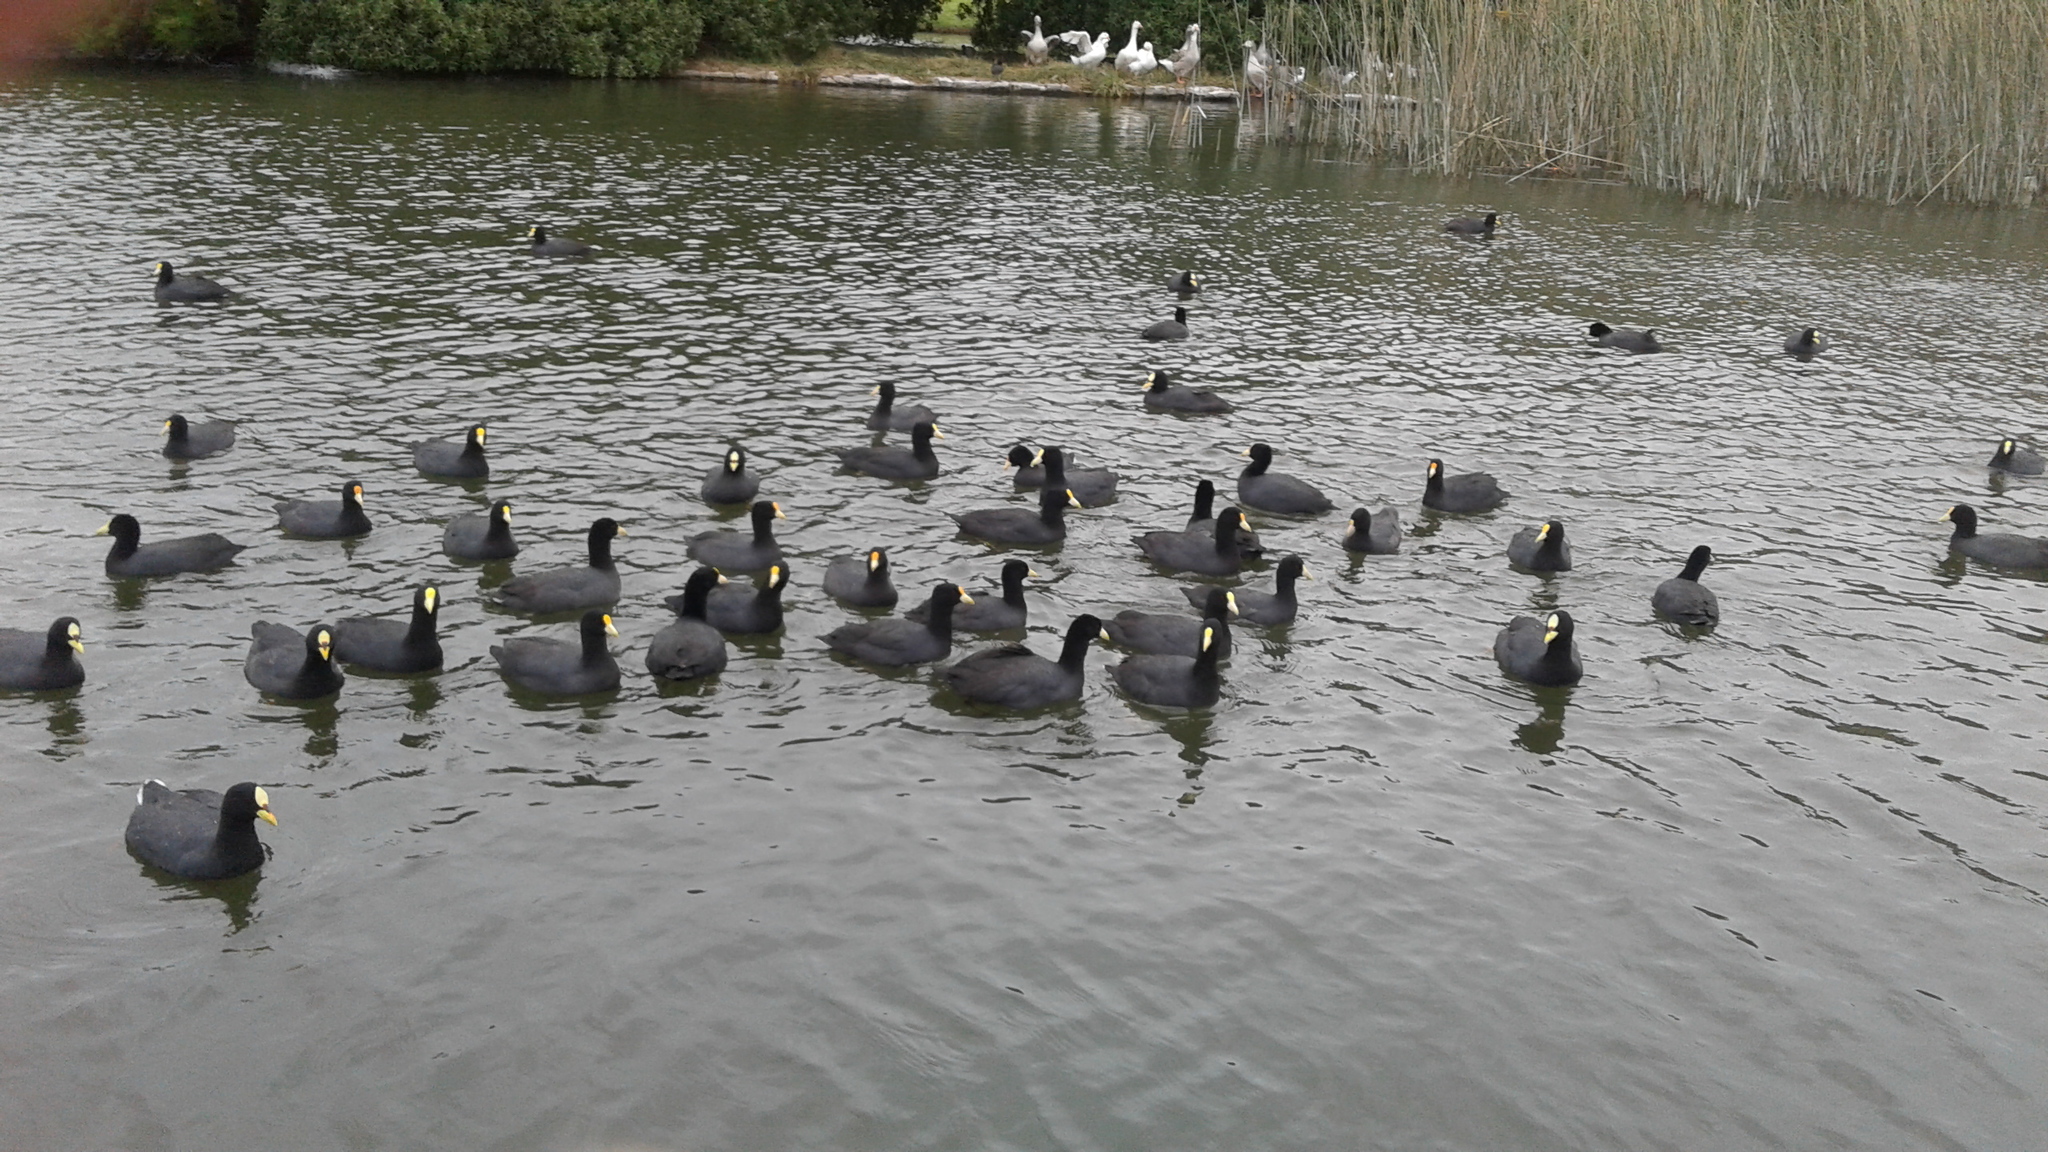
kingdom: Animalia
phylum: Chordata
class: Aves
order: Gruiformes
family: Rallidae
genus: Fulica
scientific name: Fulica armillata
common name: Red-gartered coot
